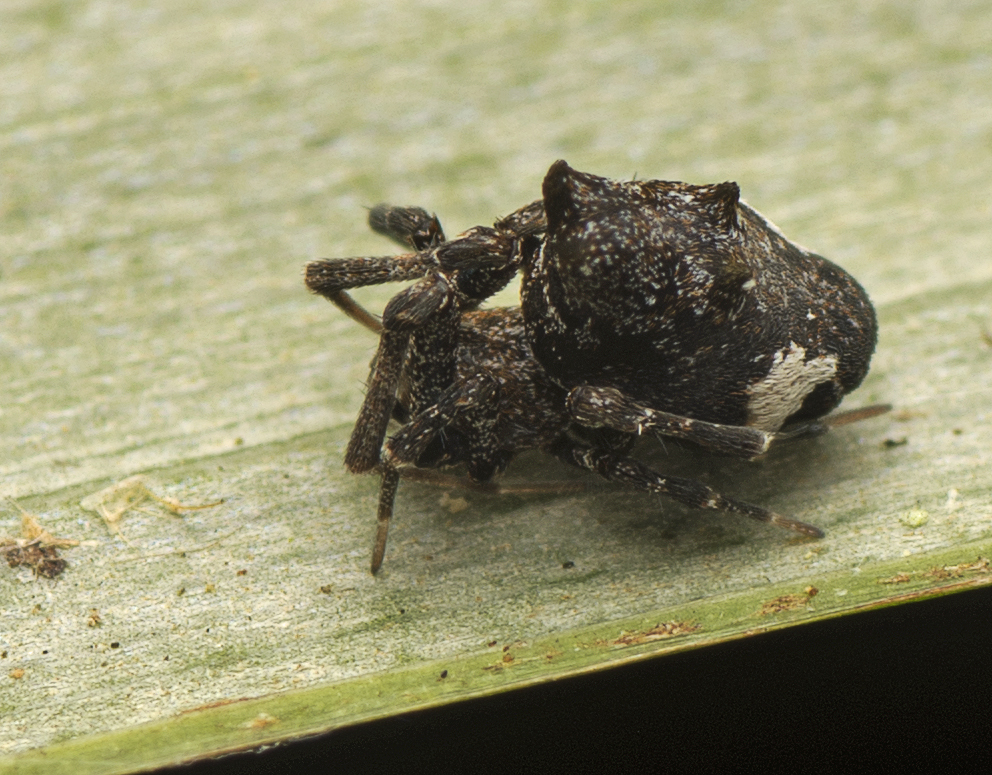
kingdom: Animalia
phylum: Arthropoda
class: Arachnida
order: Araneae
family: Uloboridae
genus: Philoponella
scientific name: Philoponella congregabilis
